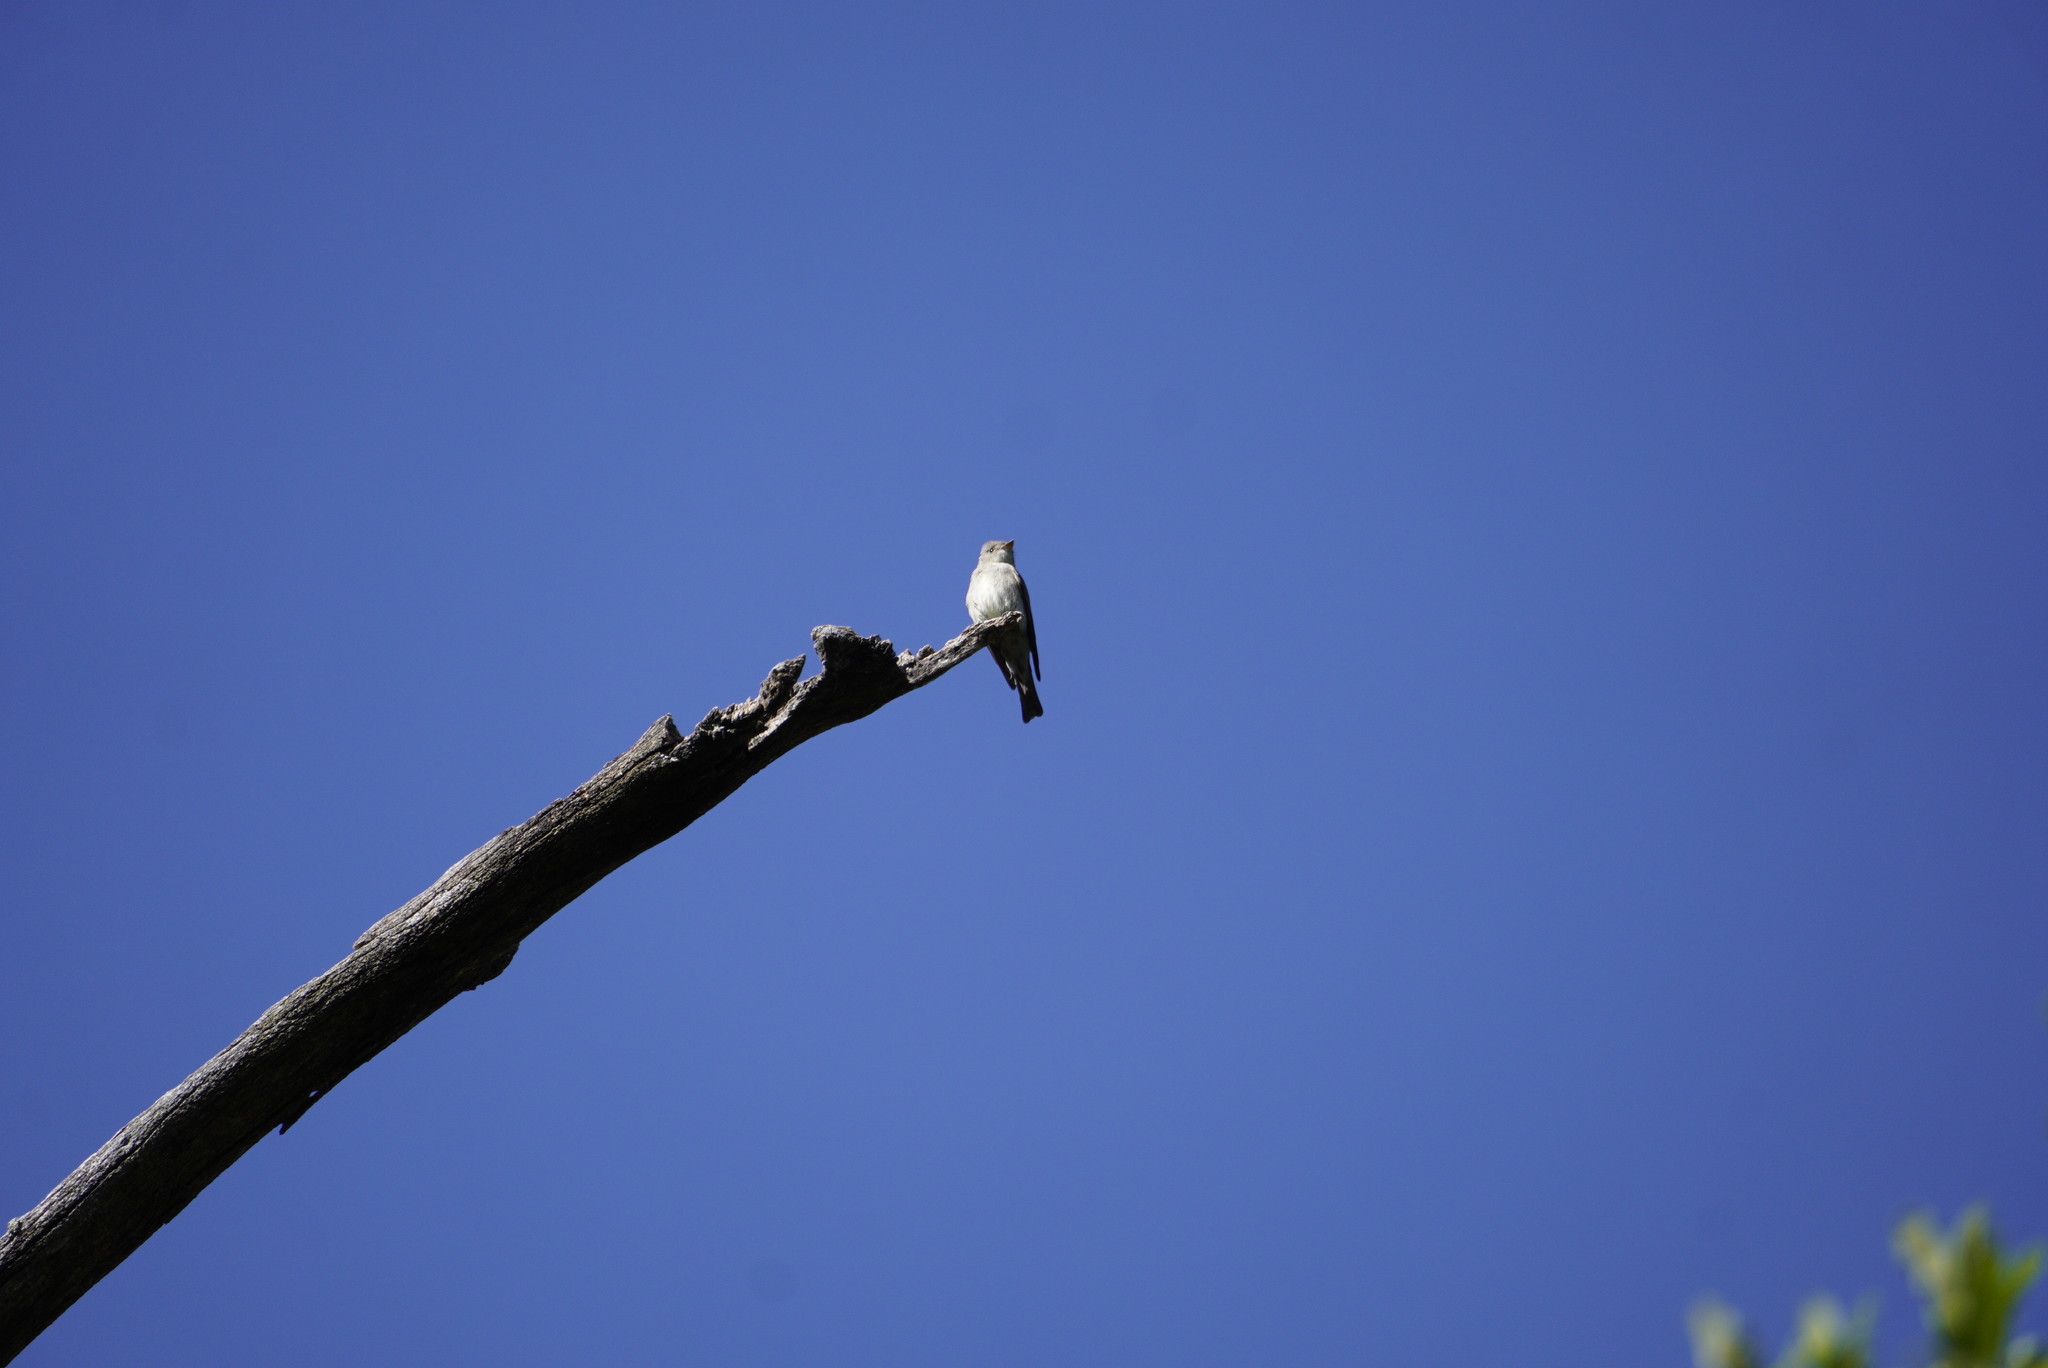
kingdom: Animalia
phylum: Chordata
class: Aves
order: Passeriformes
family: Tyrannidae
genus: Contopus
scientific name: Contopus sordidulus
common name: Western wood-pewee
